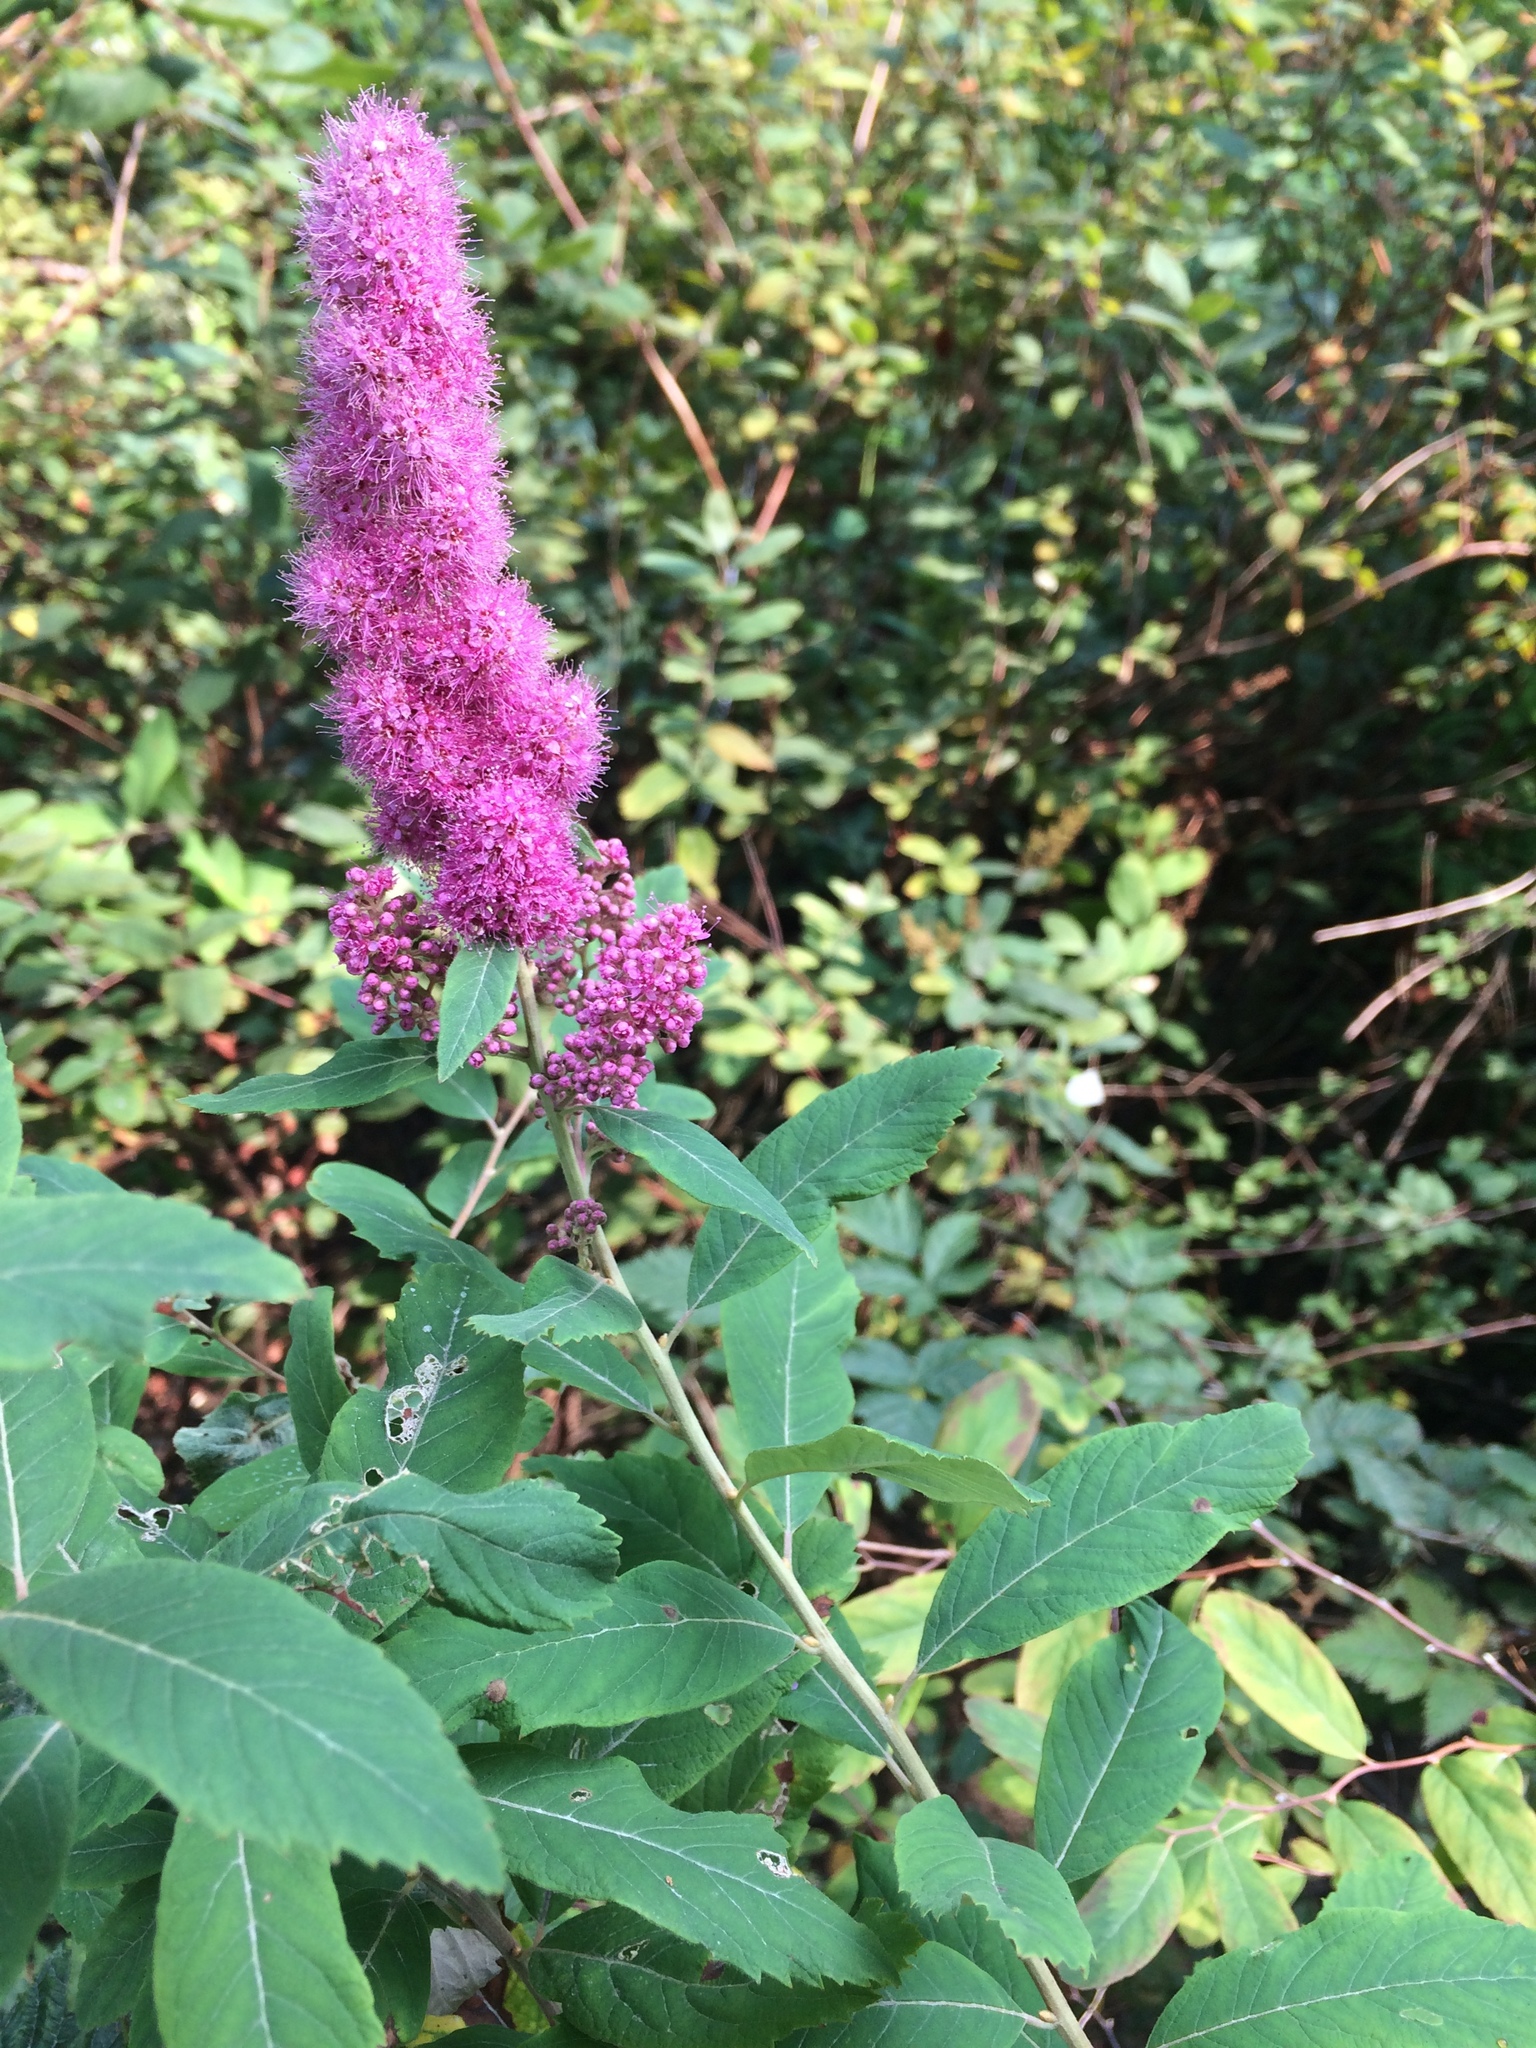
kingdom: Plantae
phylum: Tracheophyta
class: Magnoliopsida
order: Rosales
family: Rosaceae
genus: Spiraea
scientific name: Spiraea douglasii
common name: Steeplebush
